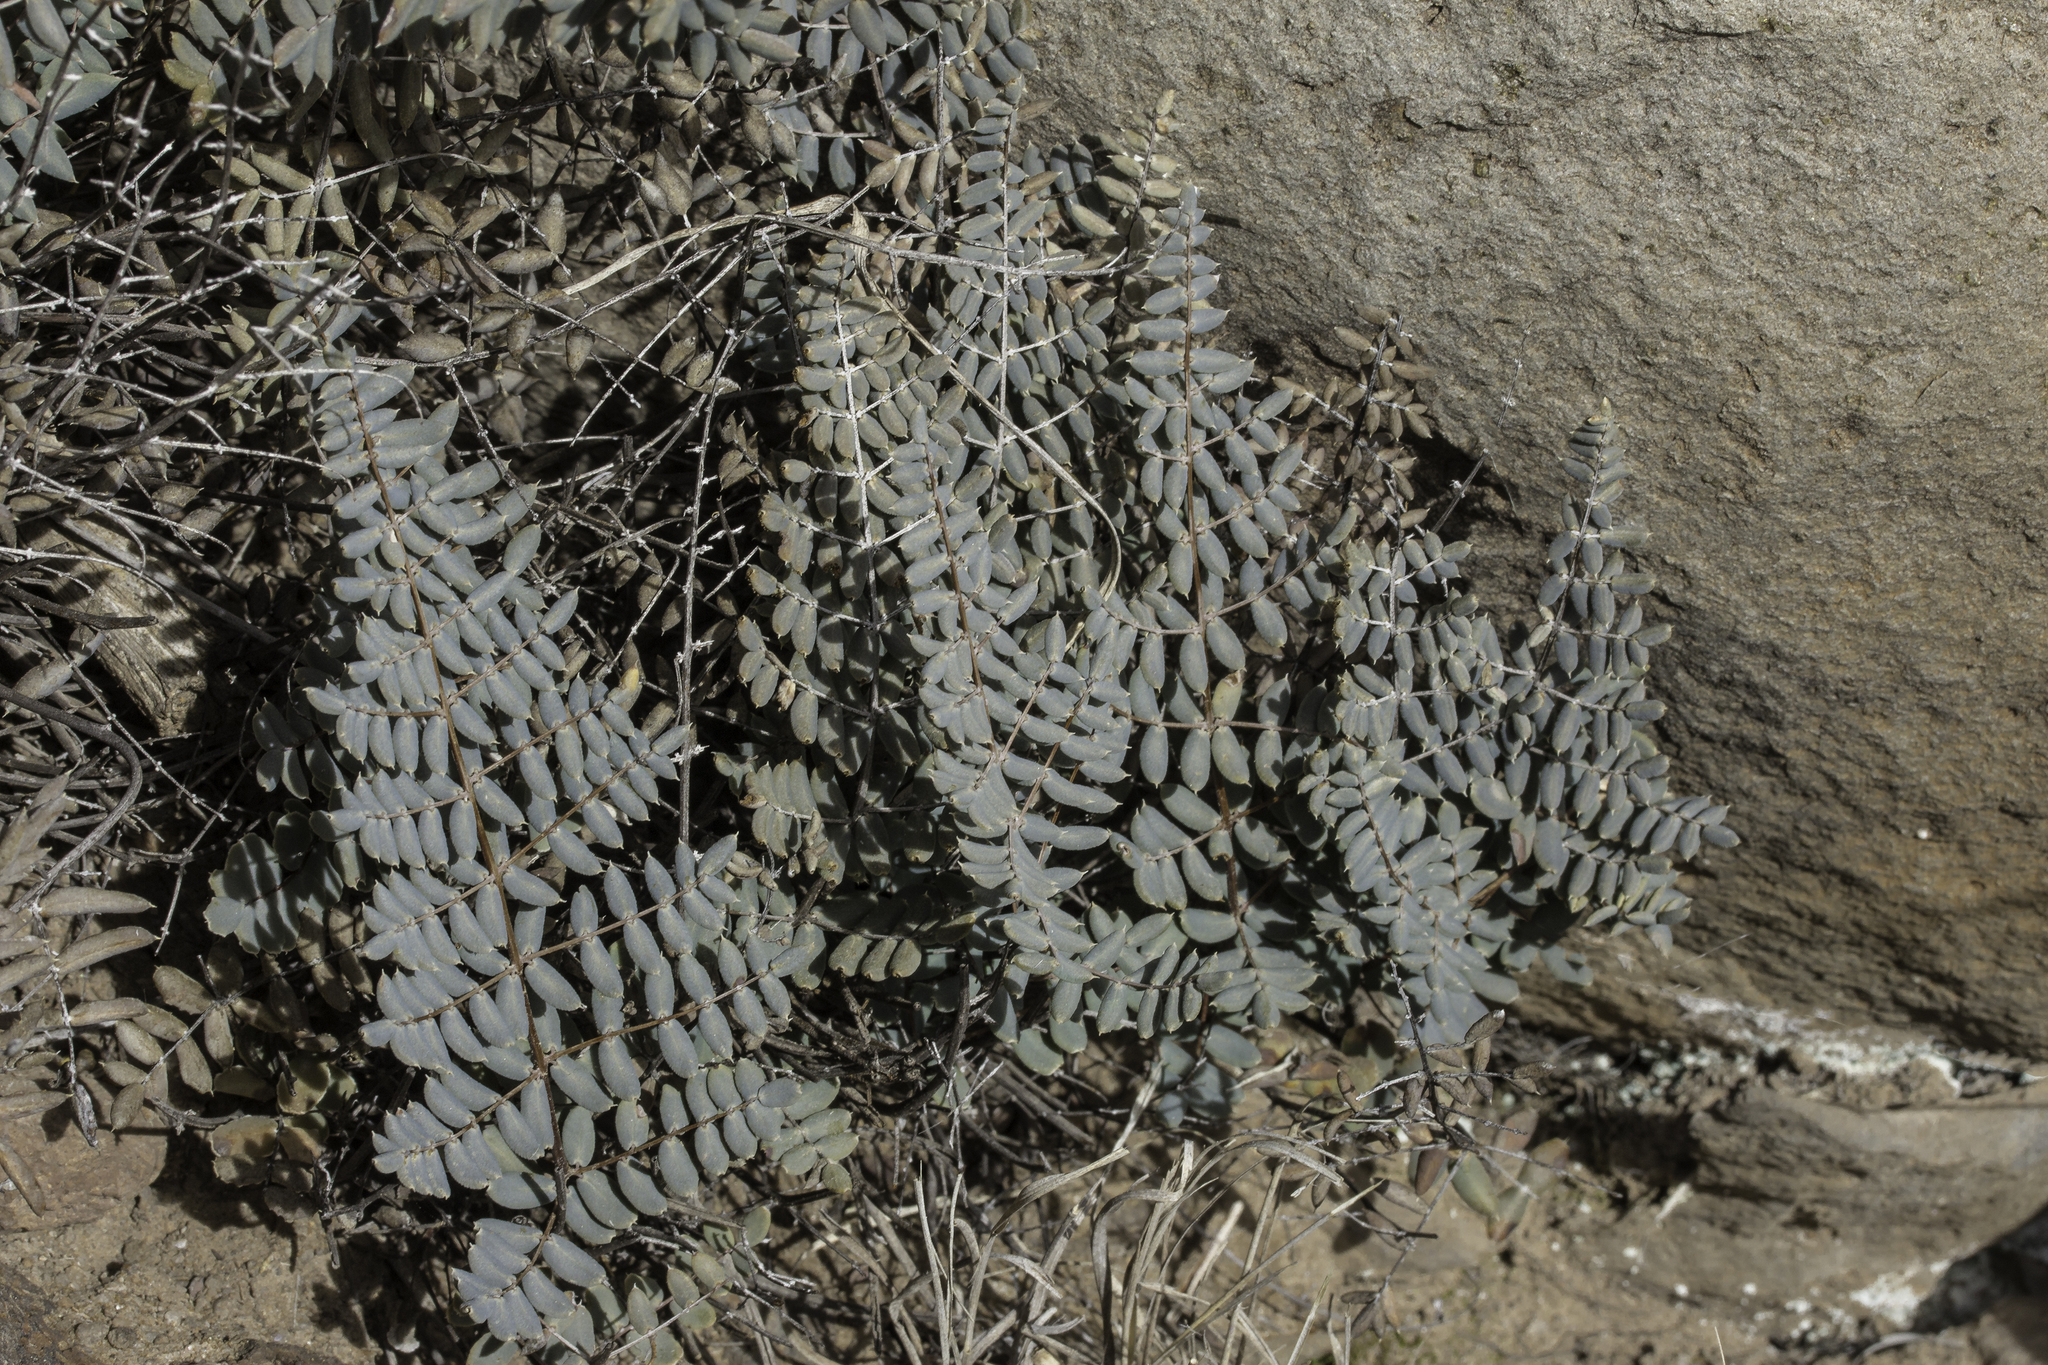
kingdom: Plantae
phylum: Tracheophyta
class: Polypodiopsida
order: Polypodiales
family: Pteridaceae
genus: Pellaea
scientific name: Pellaea truncata
